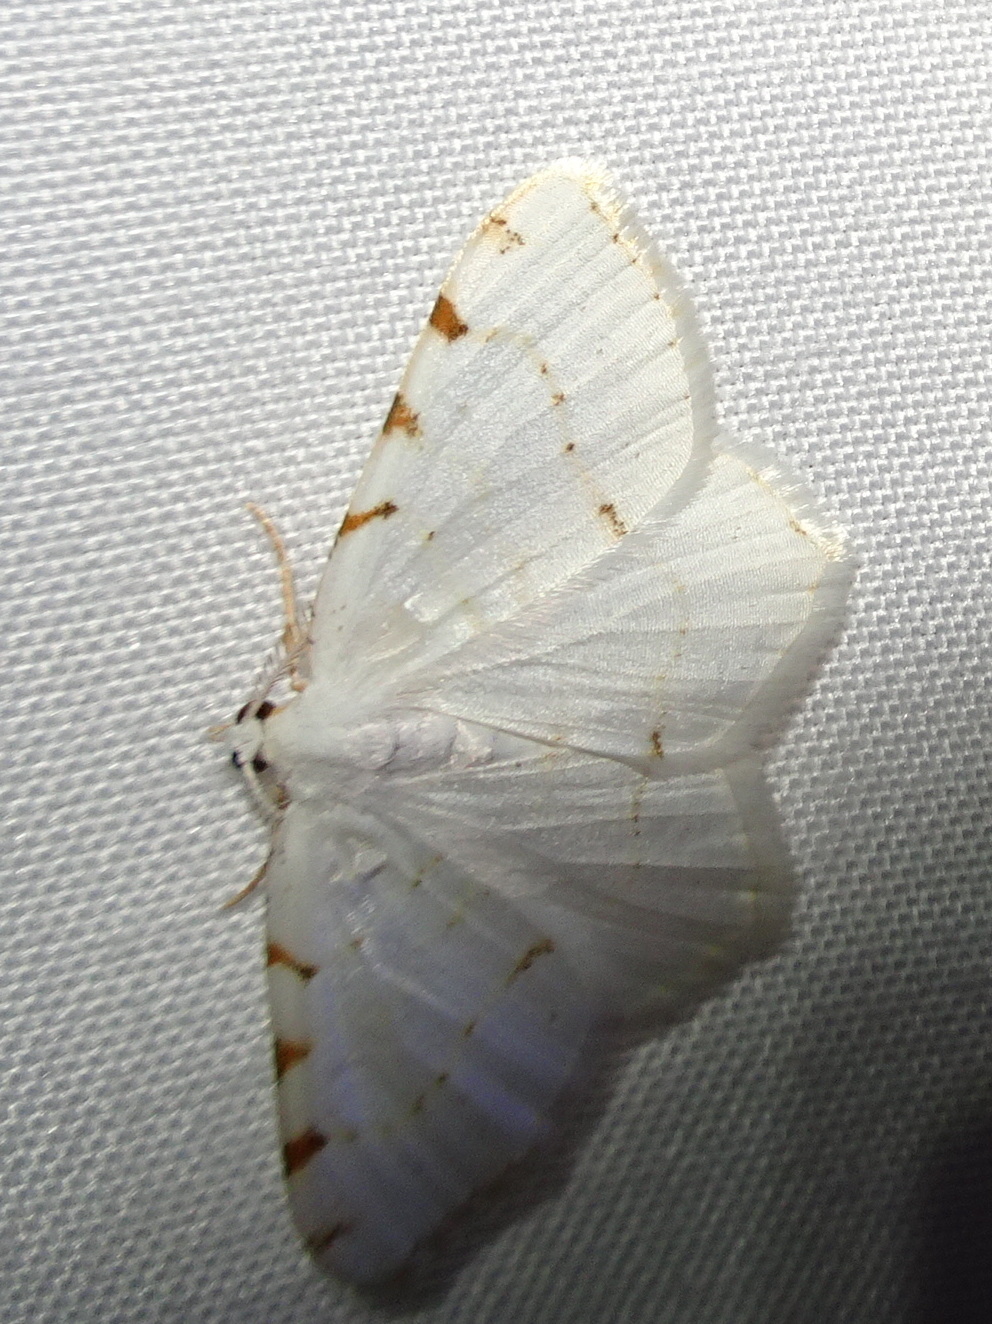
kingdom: Animalia
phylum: Arthropoda
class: Insecta
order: Lepidoptera
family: Geometridae
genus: Macaria
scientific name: Macaria pustularia
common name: Lesser maple spanworm moth
